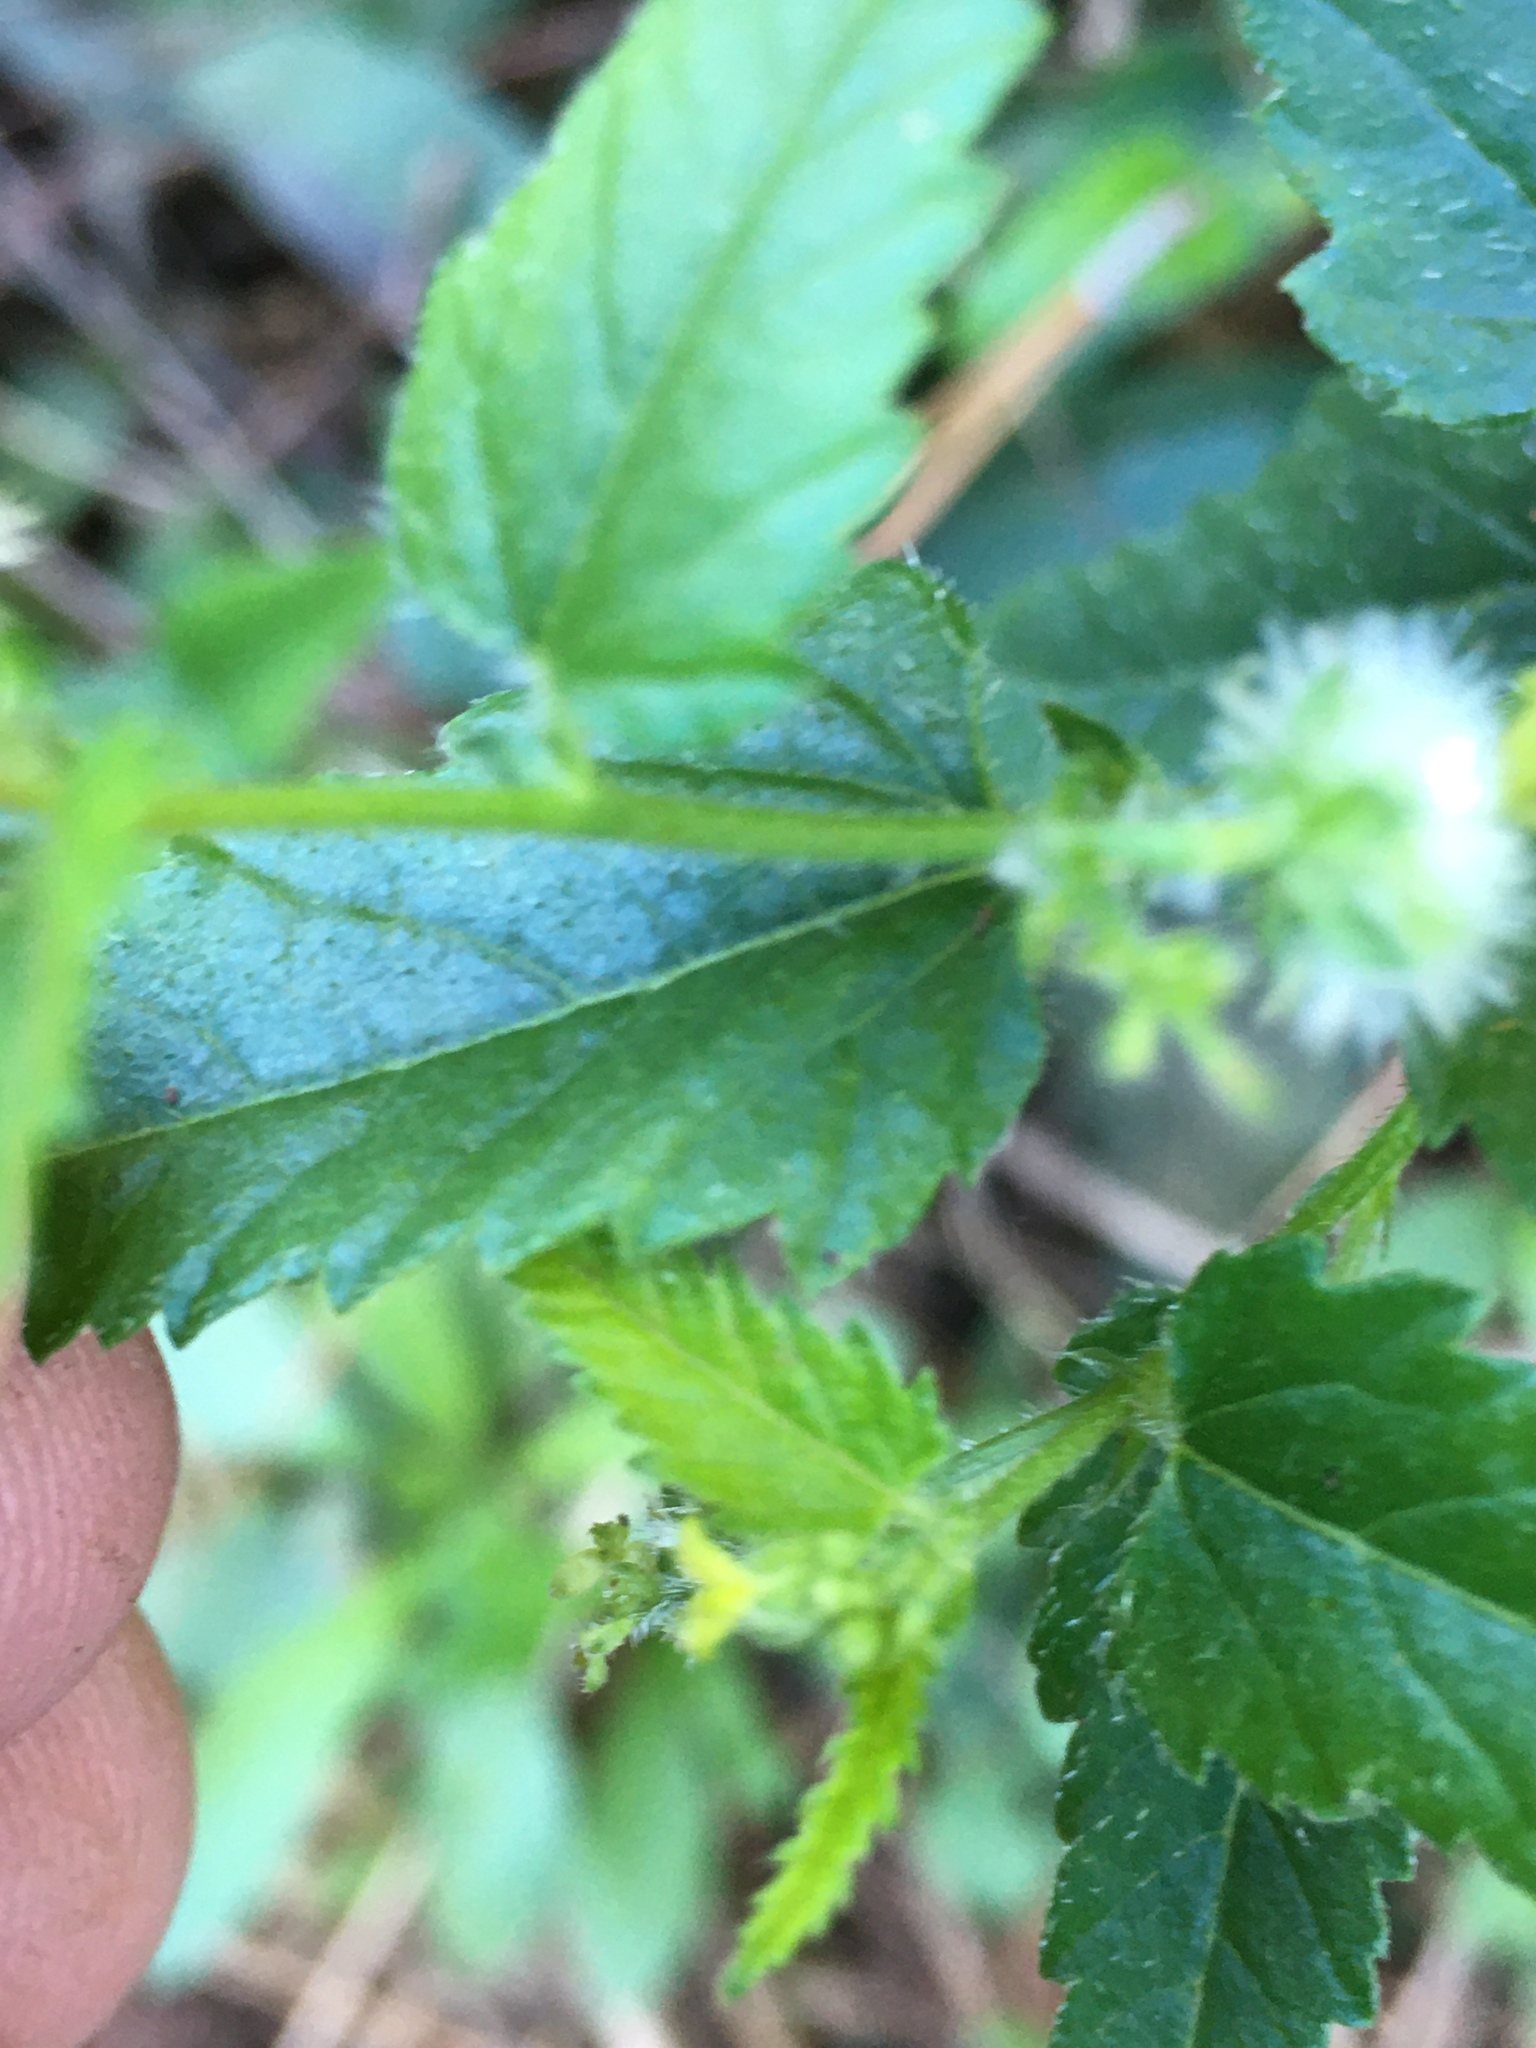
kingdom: Plantae
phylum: Tracheophyta
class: Magnoliopsida
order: Malpighiales
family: Euphorbiaceae
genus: Tragia
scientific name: Tragia urticifolia
